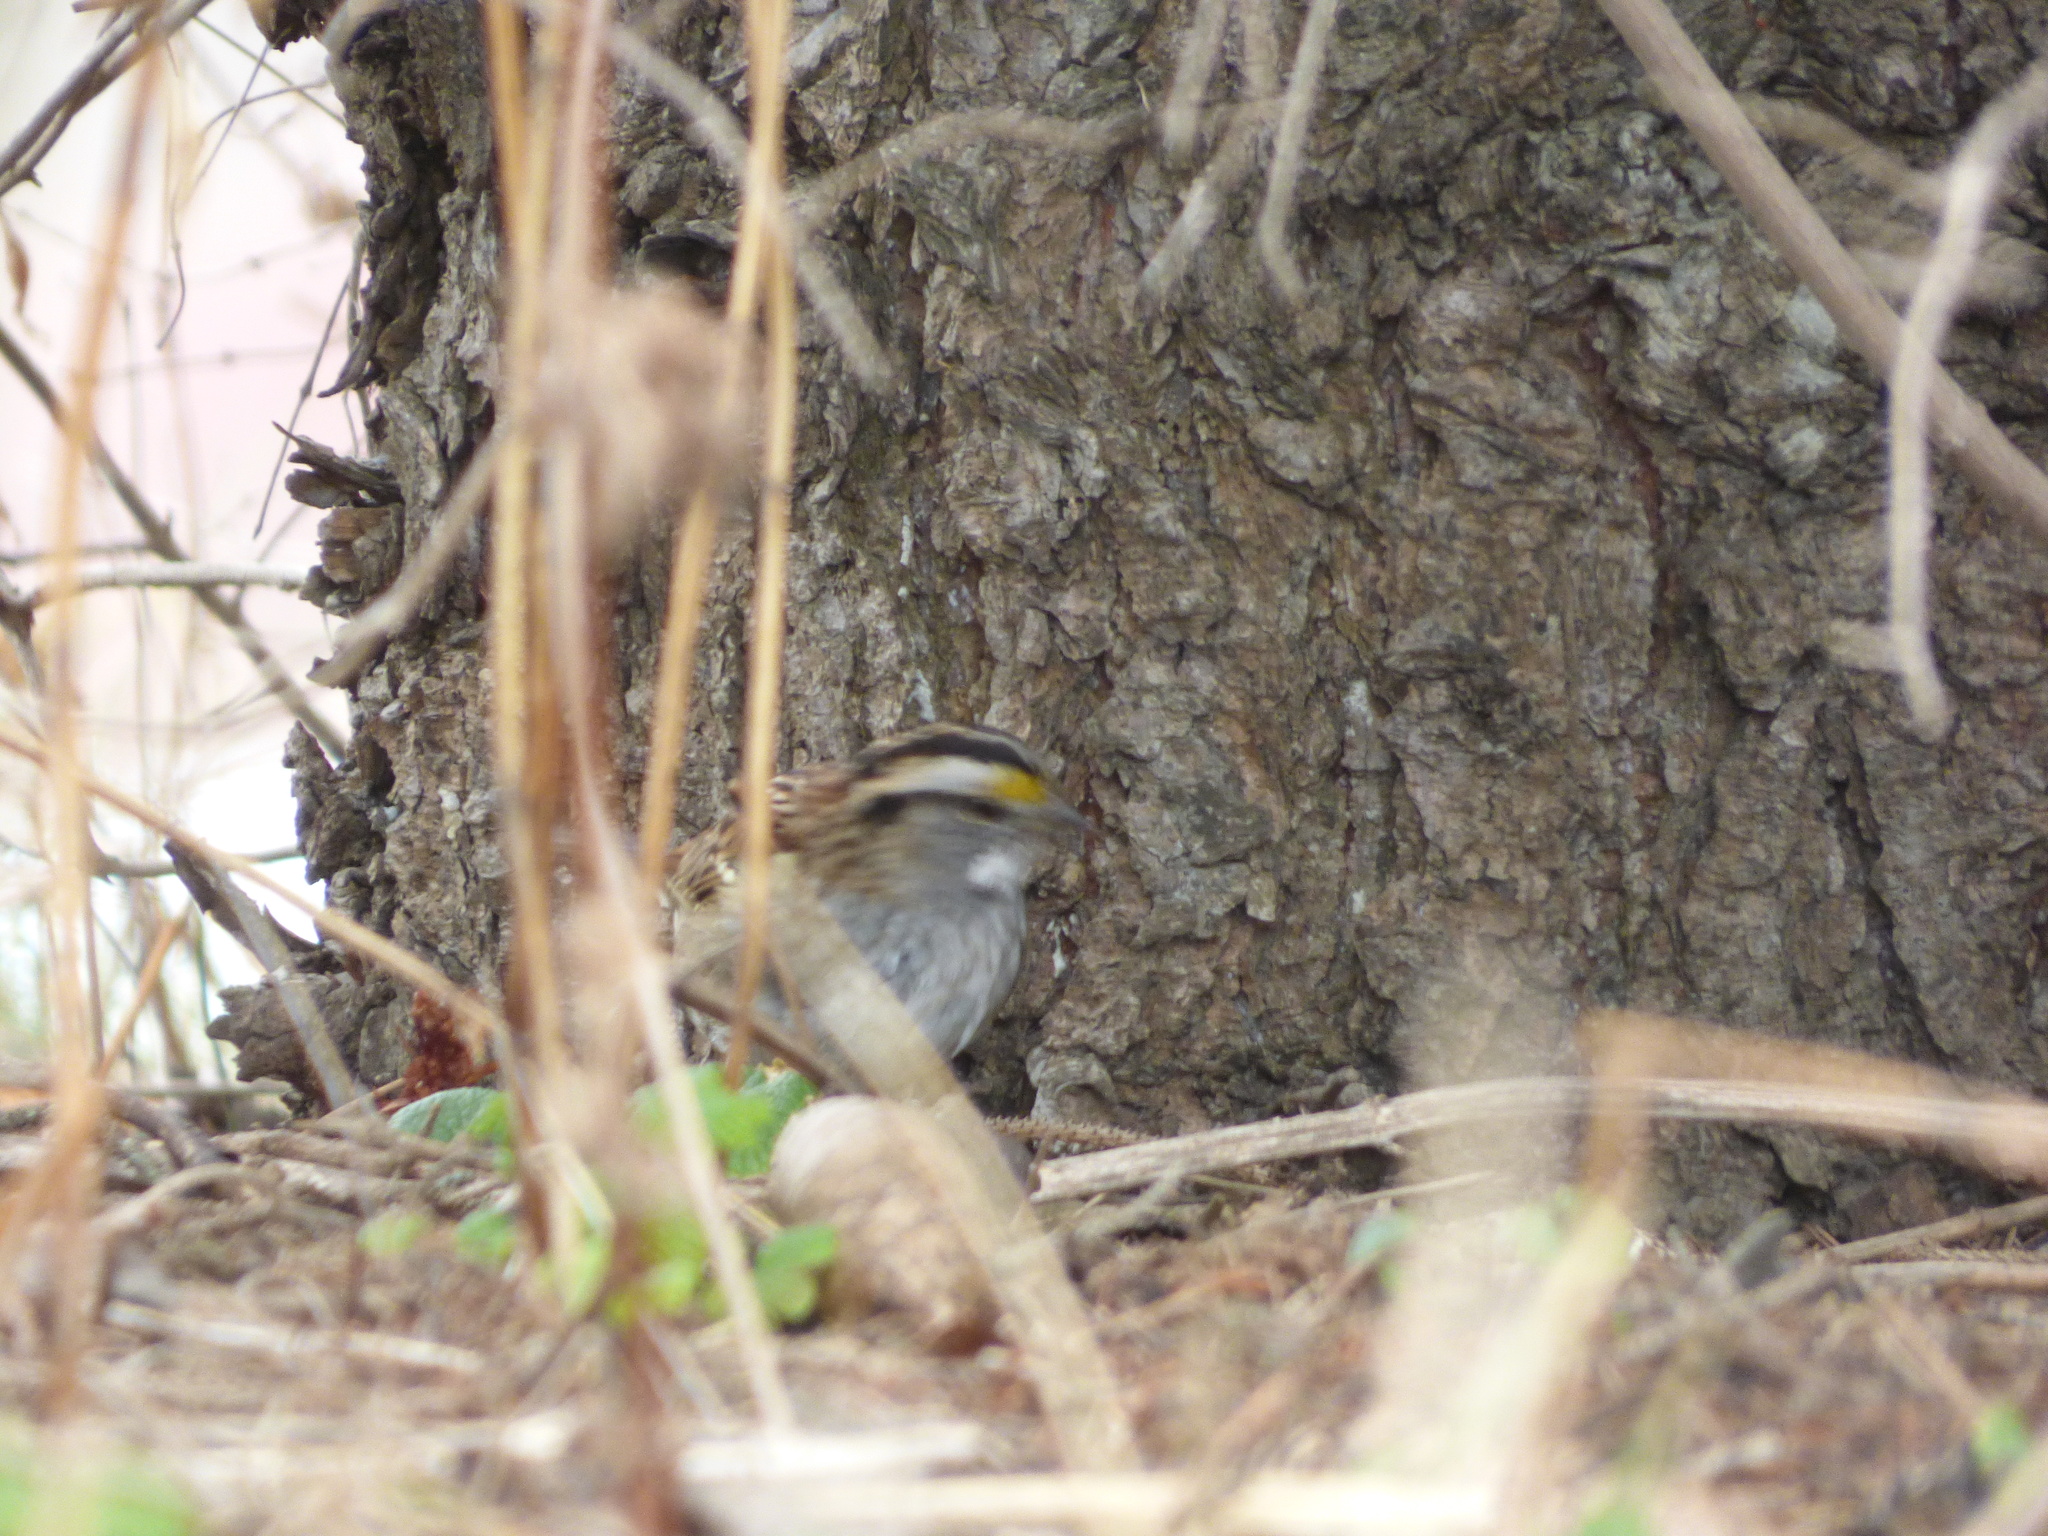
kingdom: Animalia
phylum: Chordata
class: Aves
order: Passeriformes
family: Passerellidae
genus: Zonotrichia
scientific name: Zonotrichia albicollis
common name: White-throated sparrow
